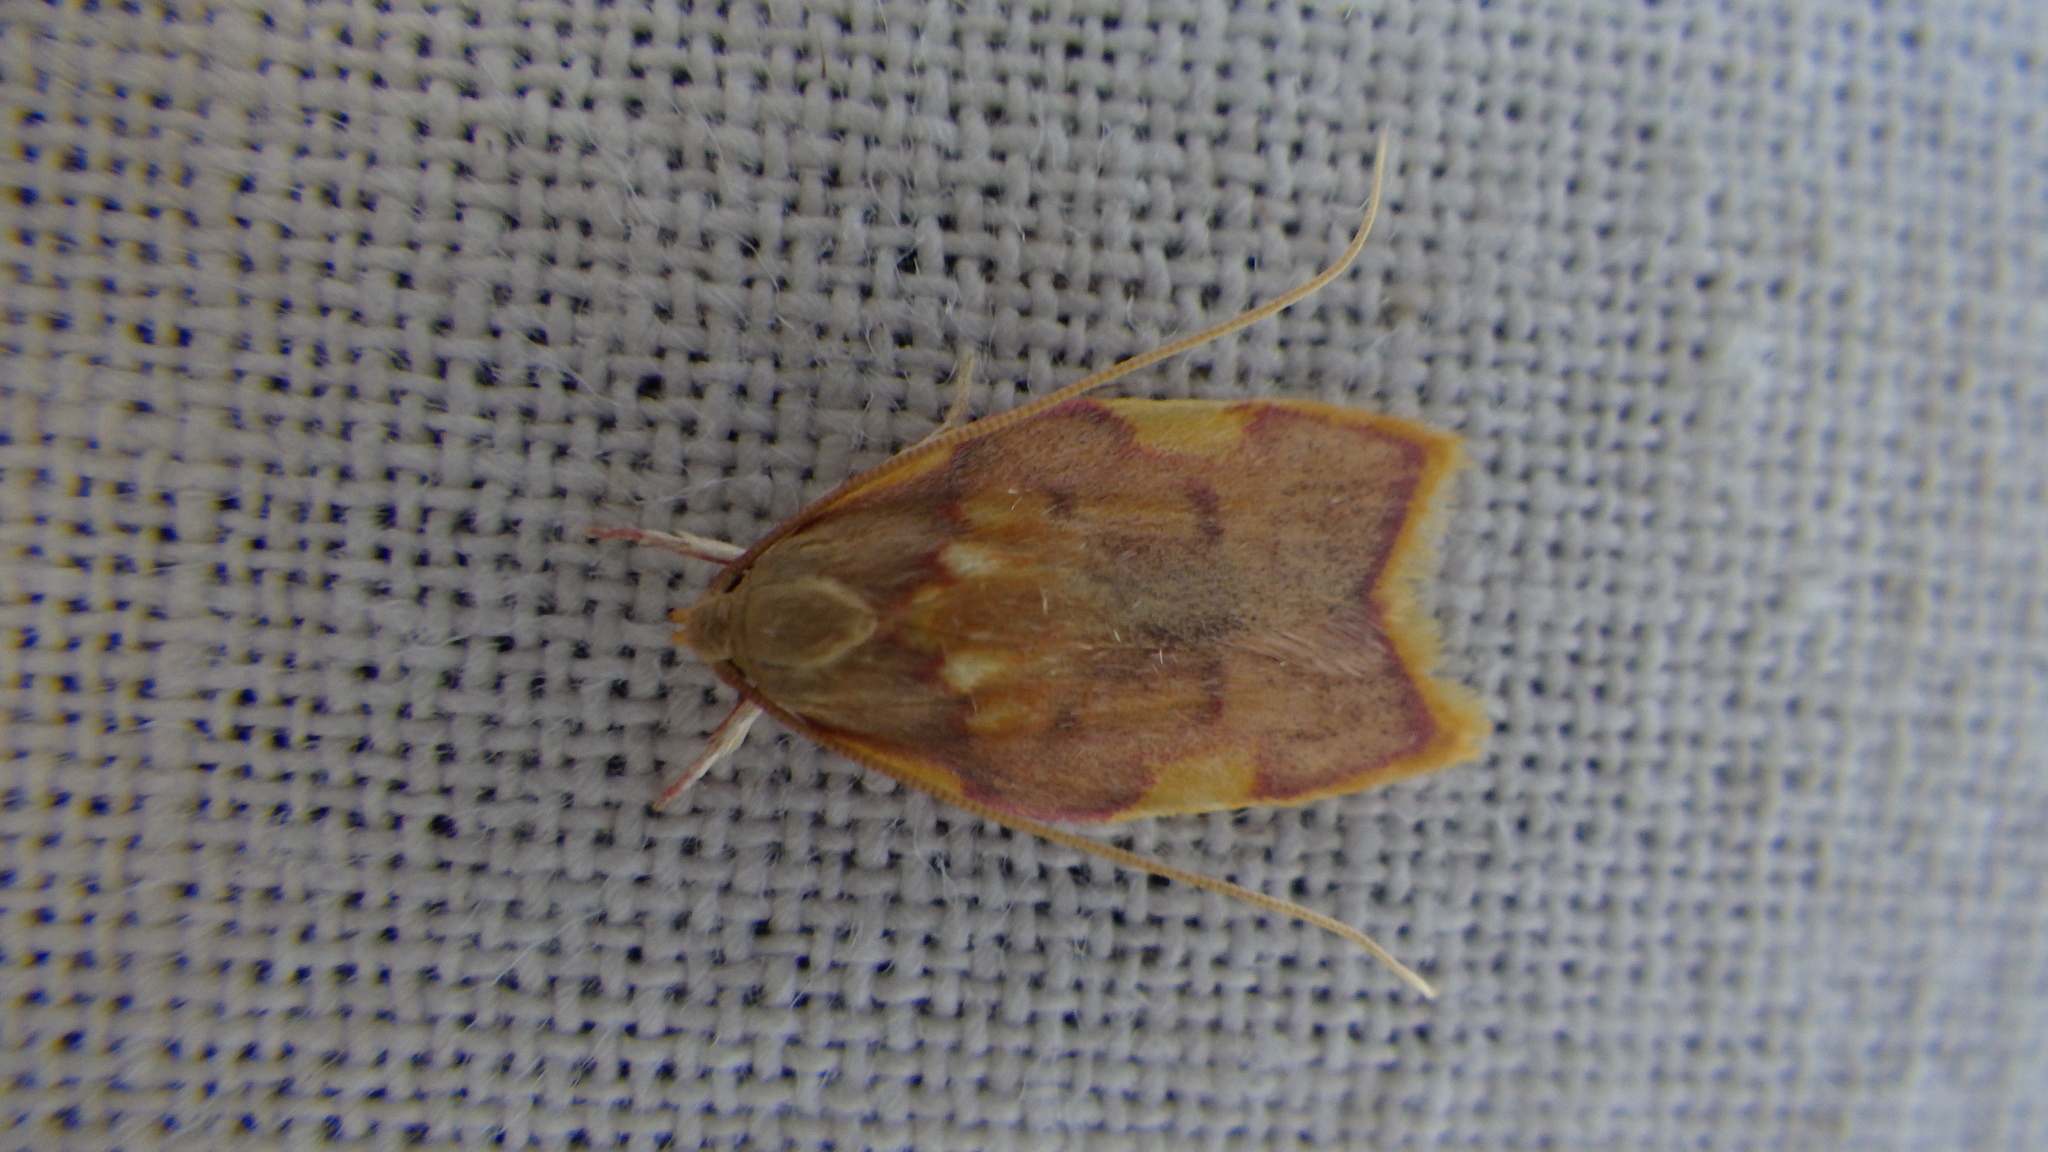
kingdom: Animalia
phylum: Arthropoda
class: Insecta
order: Lepidoptera
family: Peleopodidae
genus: Carcina
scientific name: Carcina quercana
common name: Moth
